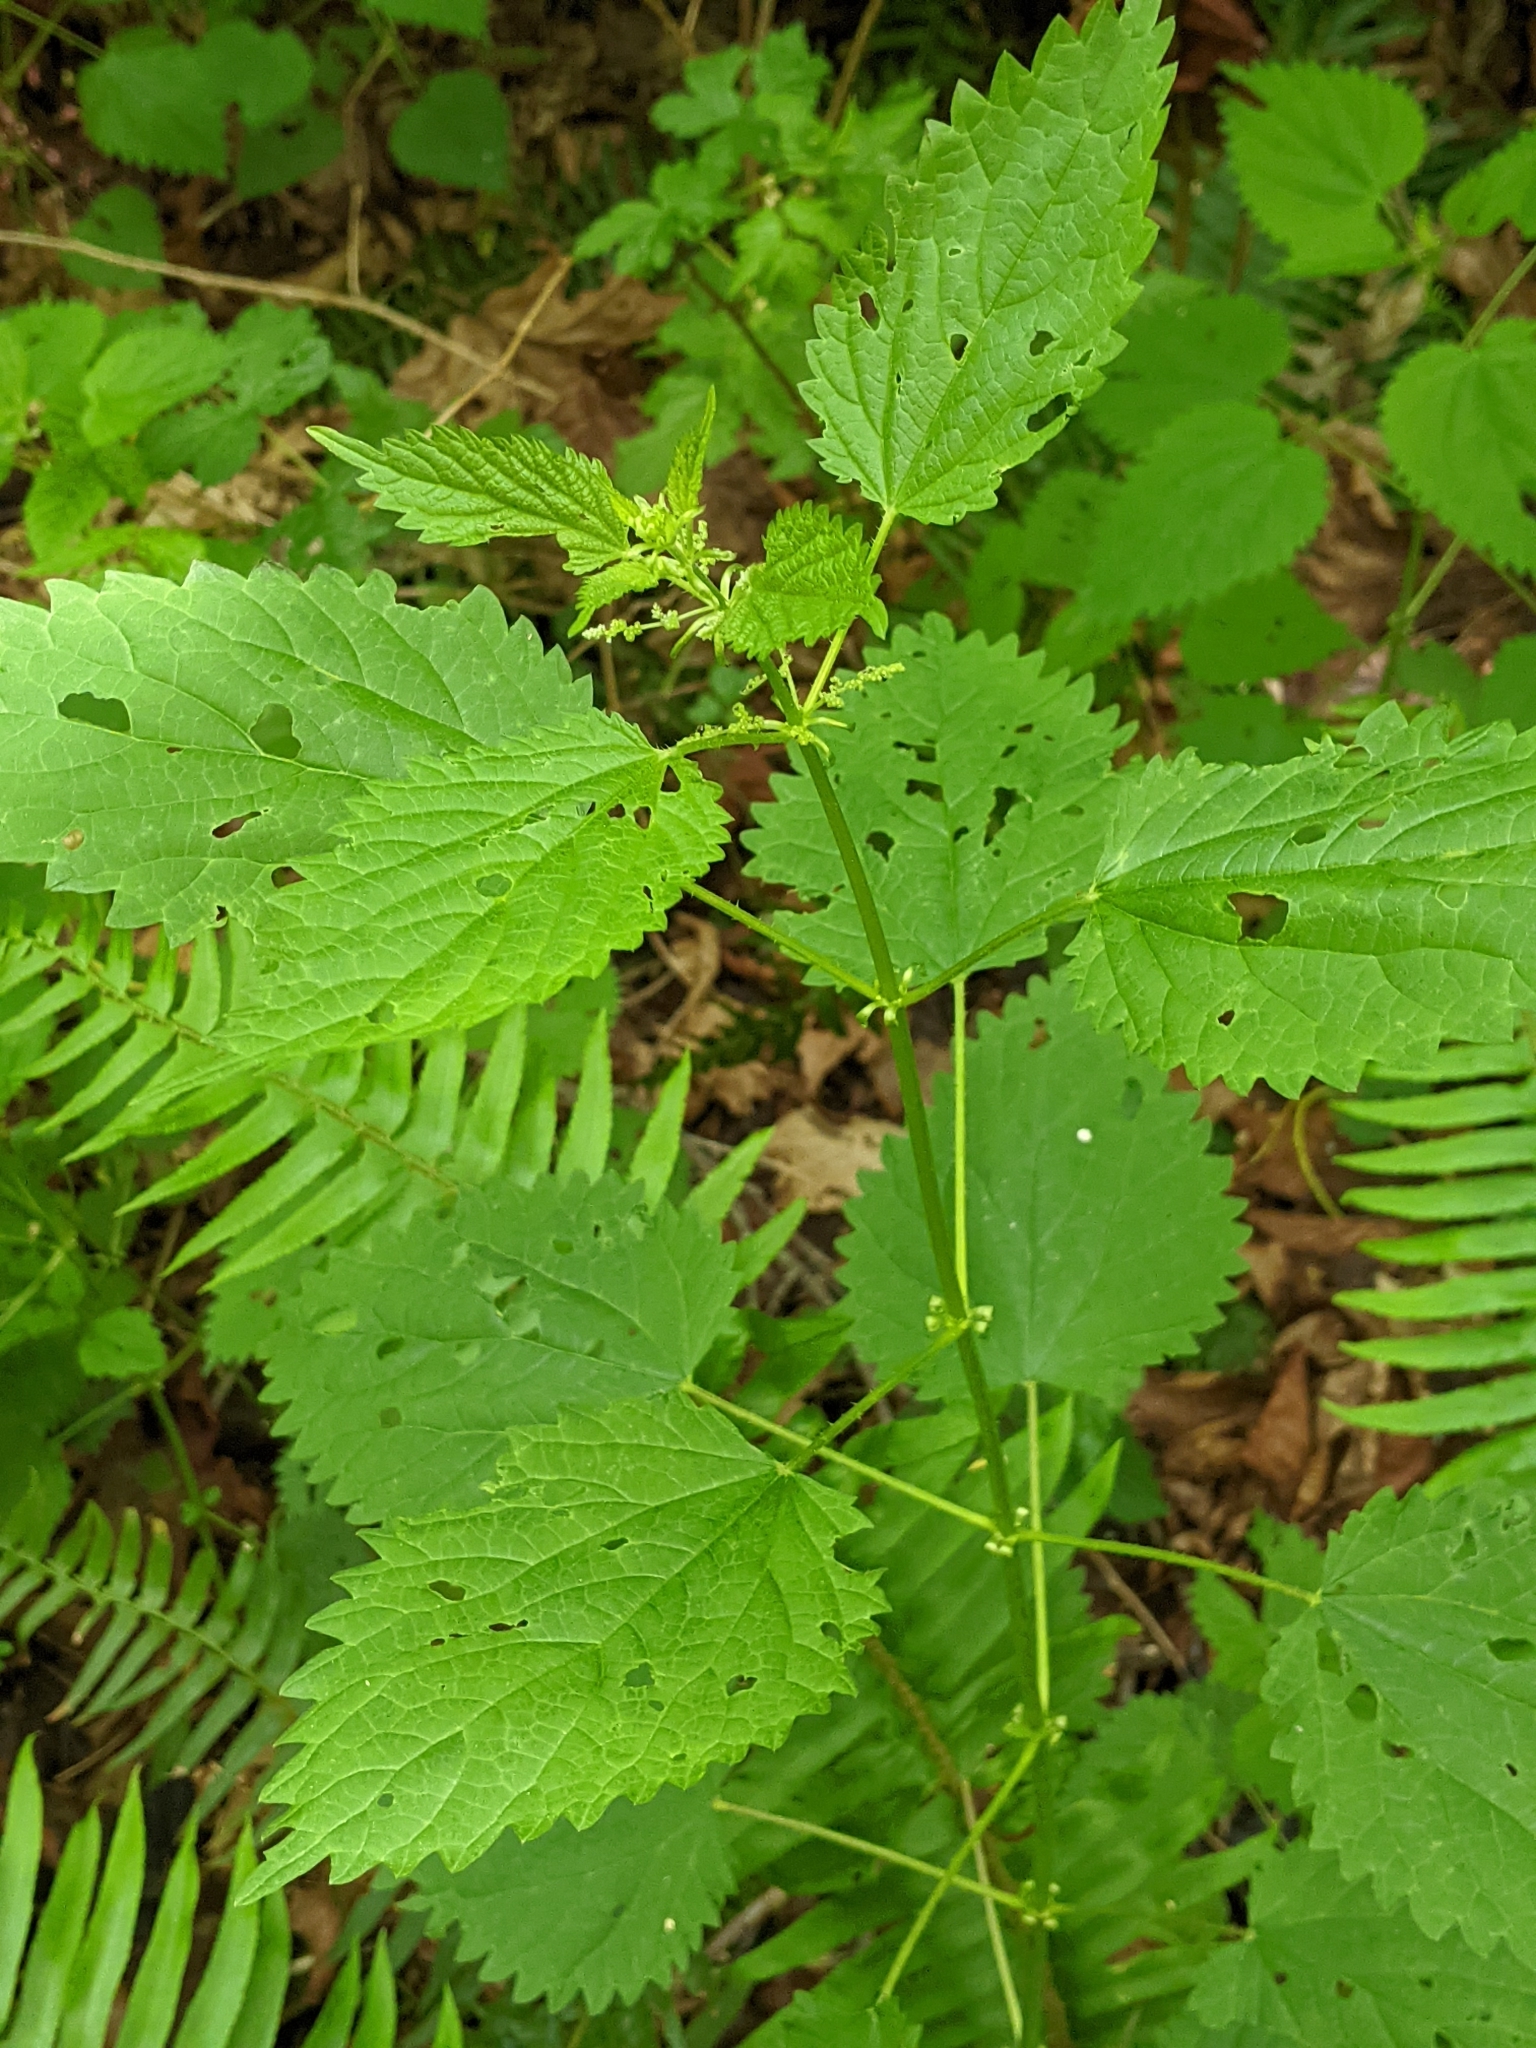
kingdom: Plantae
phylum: Tracheophyta
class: Magnoliopsida
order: Rosales
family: Urticaceae
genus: Urtica
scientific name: Urtica gracilis
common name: Slender stinging nettle
